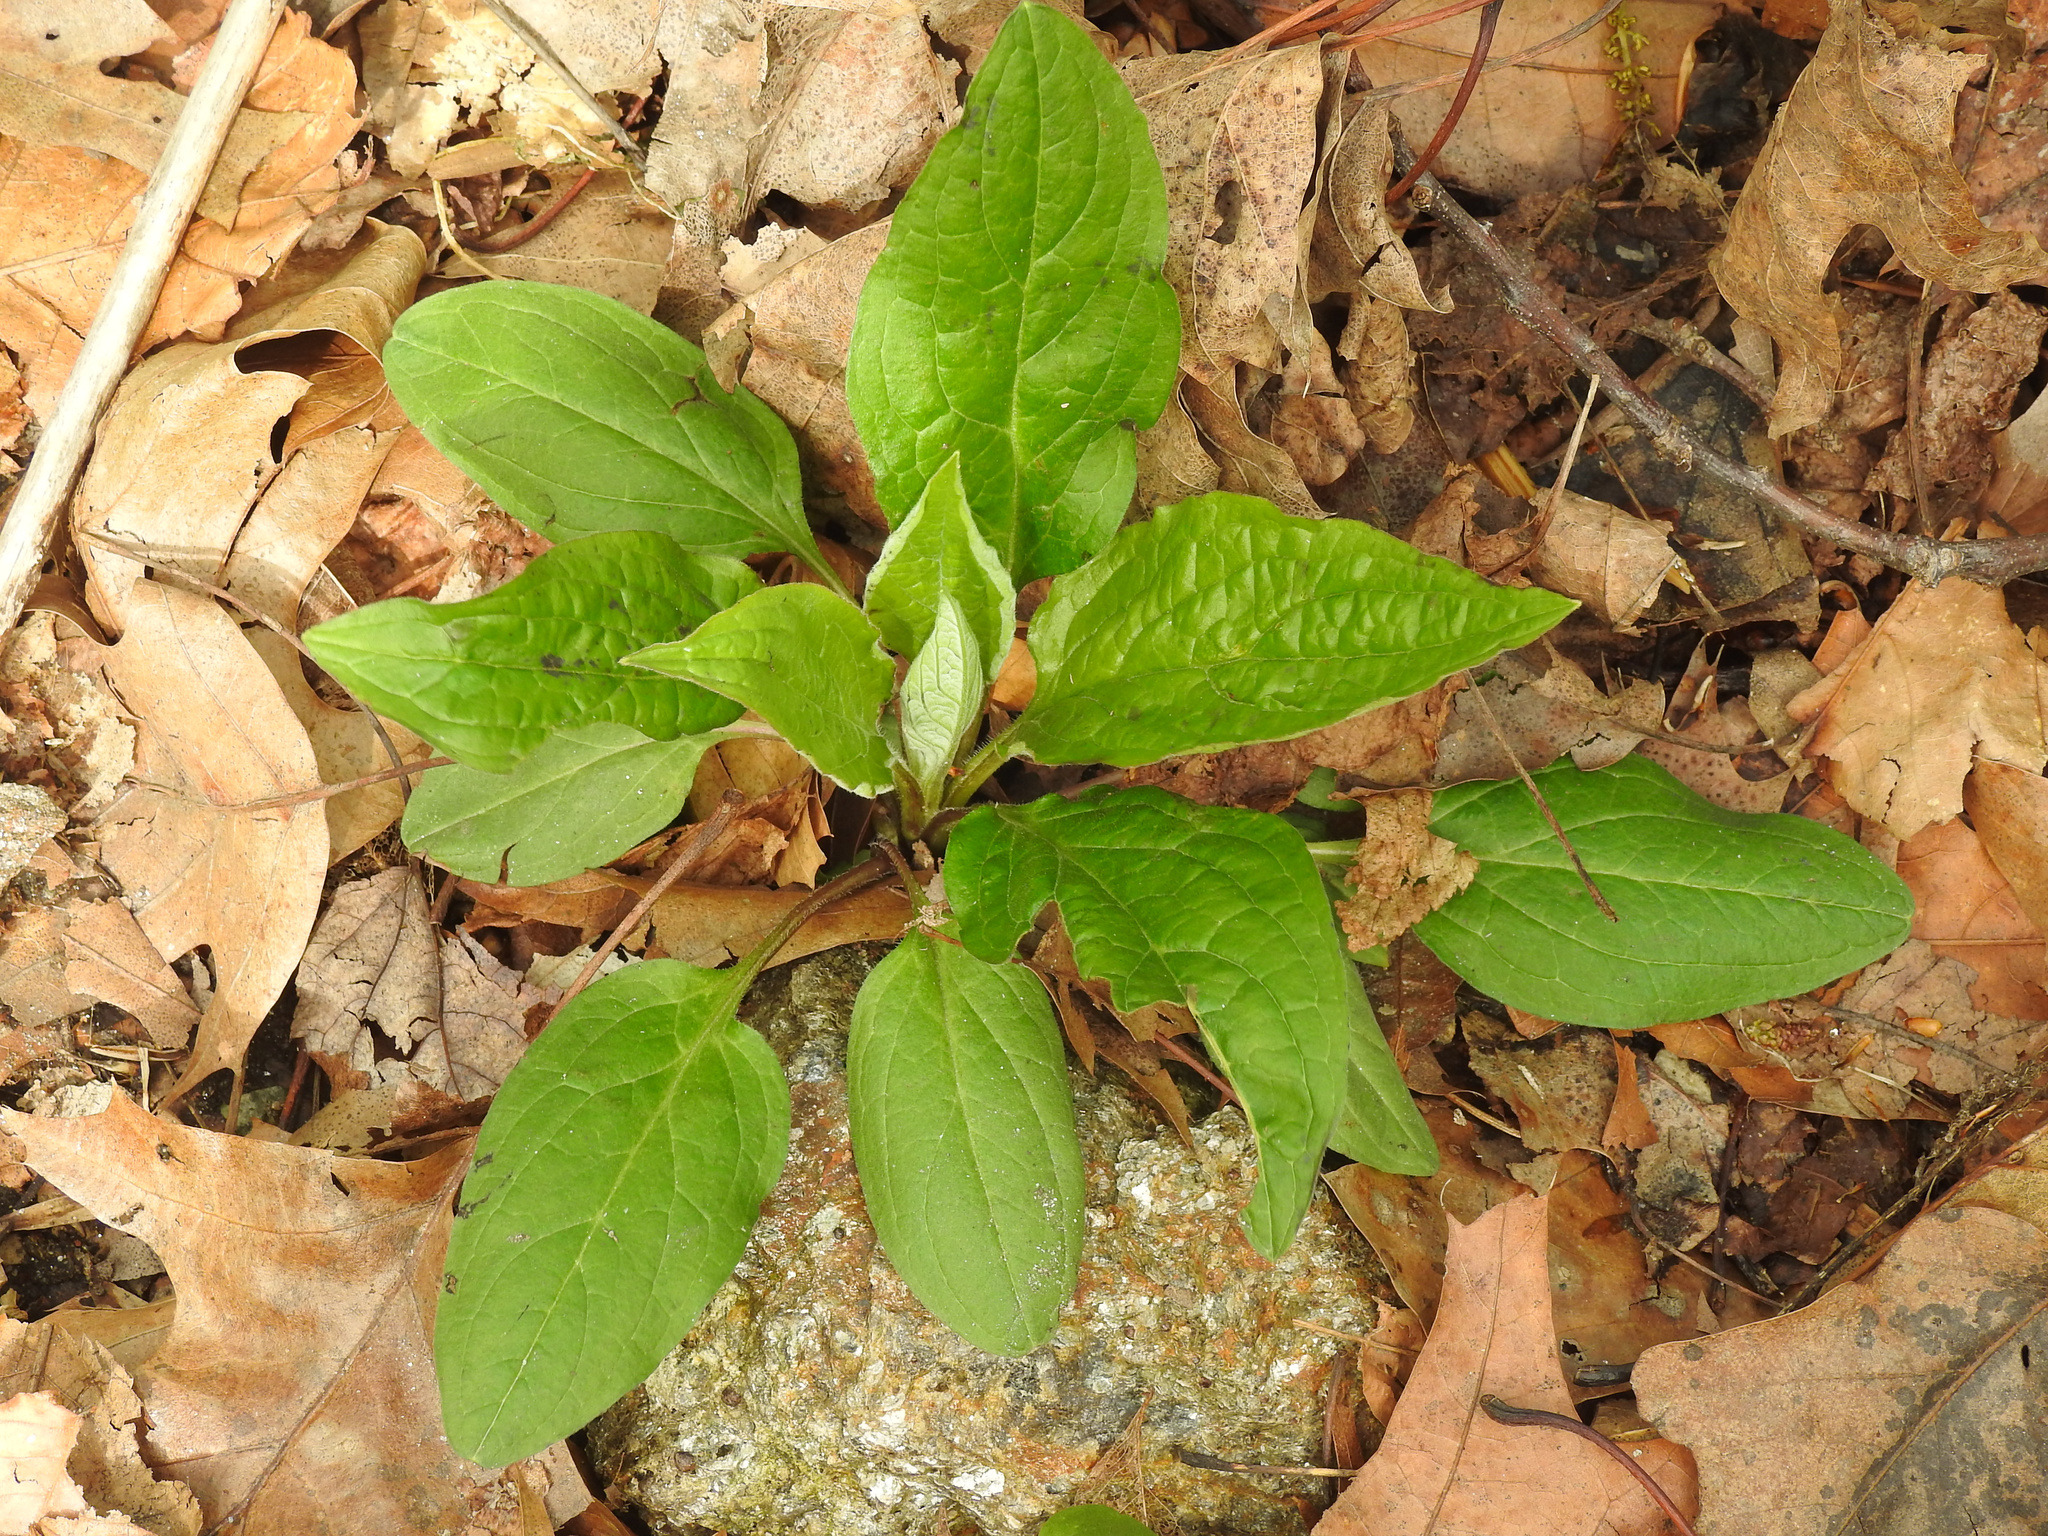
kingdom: Plantae
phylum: Tracheophyta
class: Magnoliopsida
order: Boraginales
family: Boraginaceae
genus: Hackelia
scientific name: Hackelia virginiana
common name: Beggar's-lice
